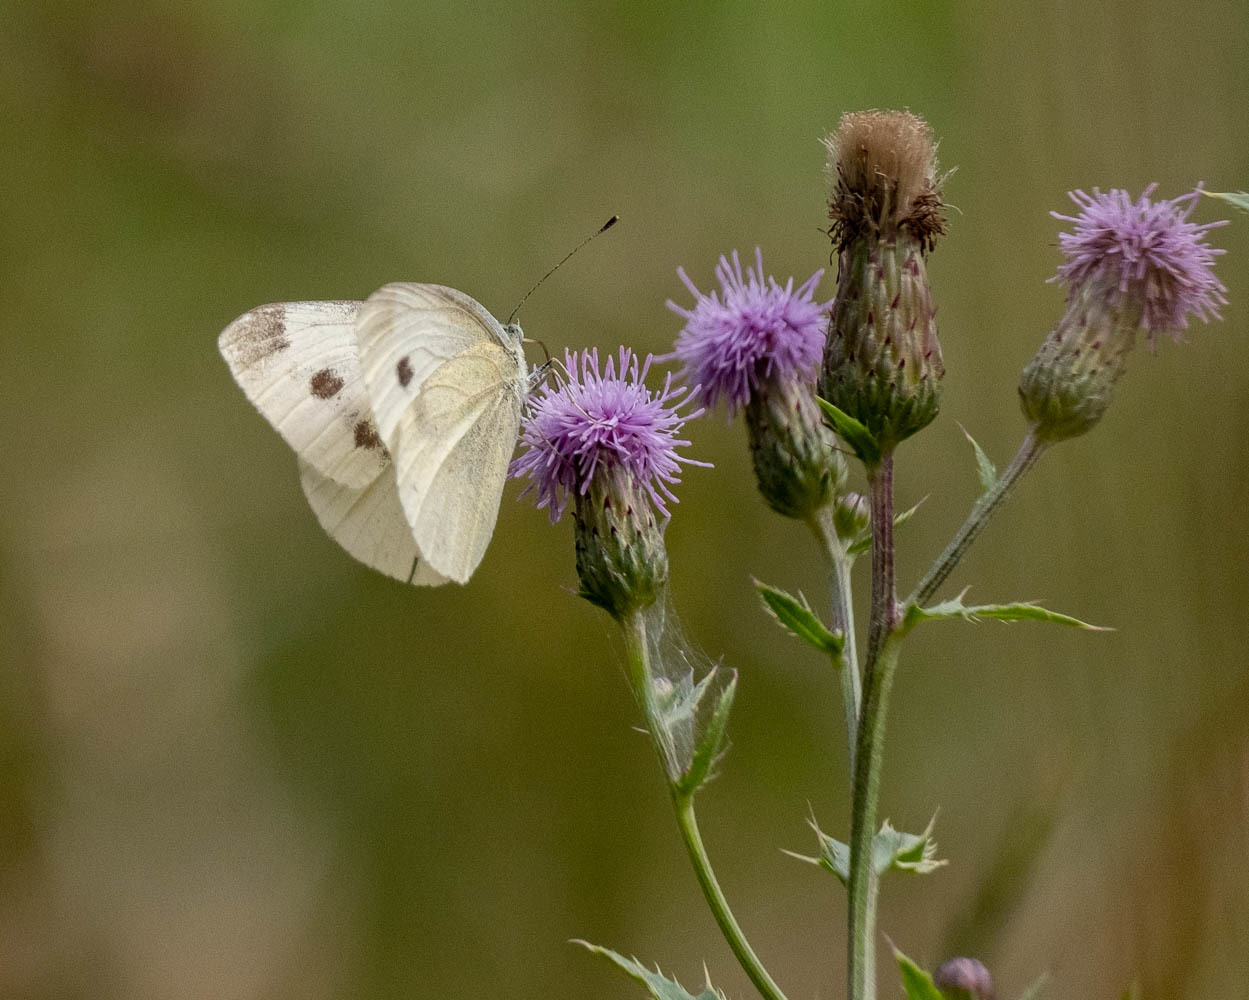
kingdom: Animalia
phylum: Arthropoda
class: Insecta
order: Lepidoptera
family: Pieridae
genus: Pieris
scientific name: Pieris rapae
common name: Small white
